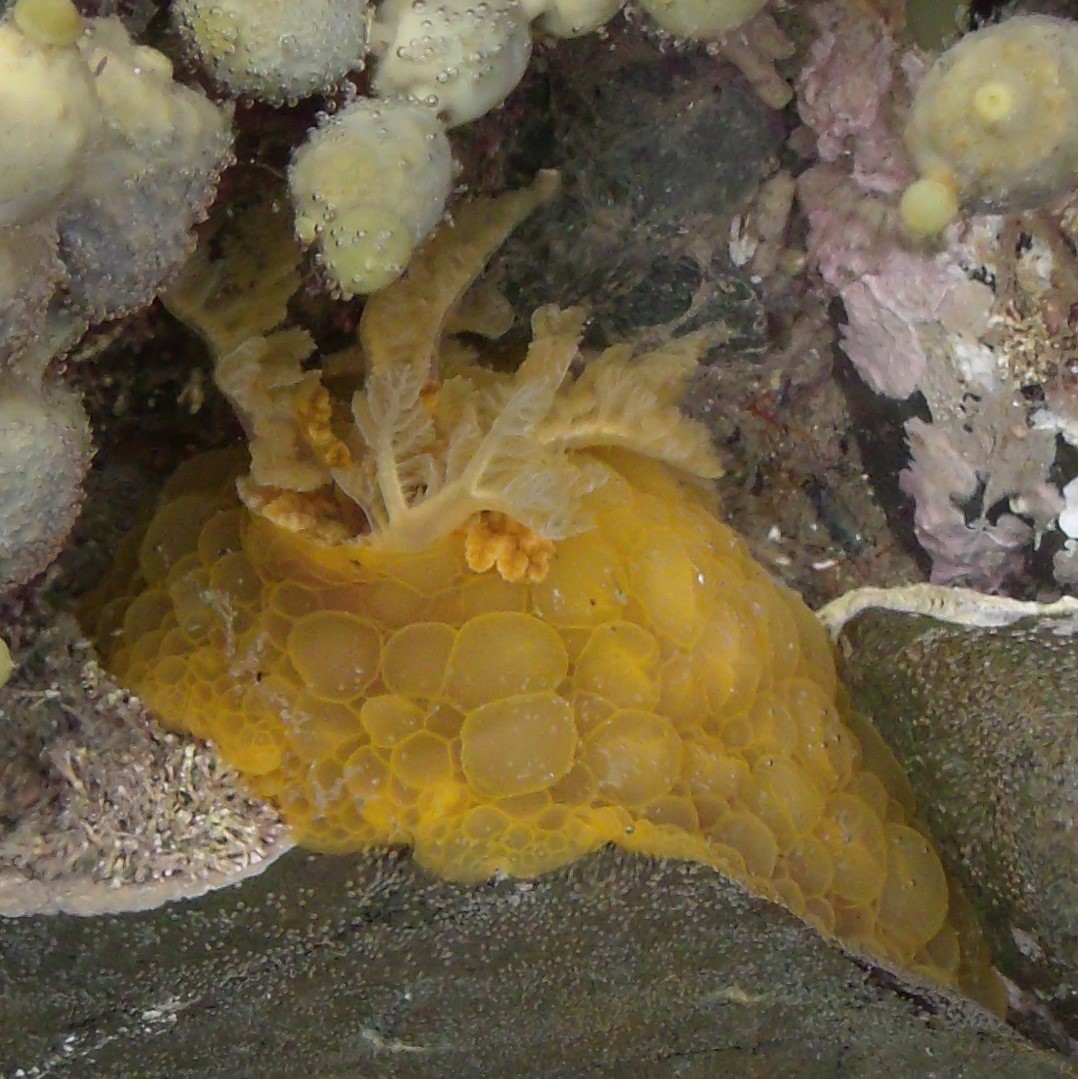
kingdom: Animalia
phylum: Mollusca
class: Gastropoda
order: Nudibranchia
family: Dorididae
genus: Doris
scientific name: Doris wellingtonensis
